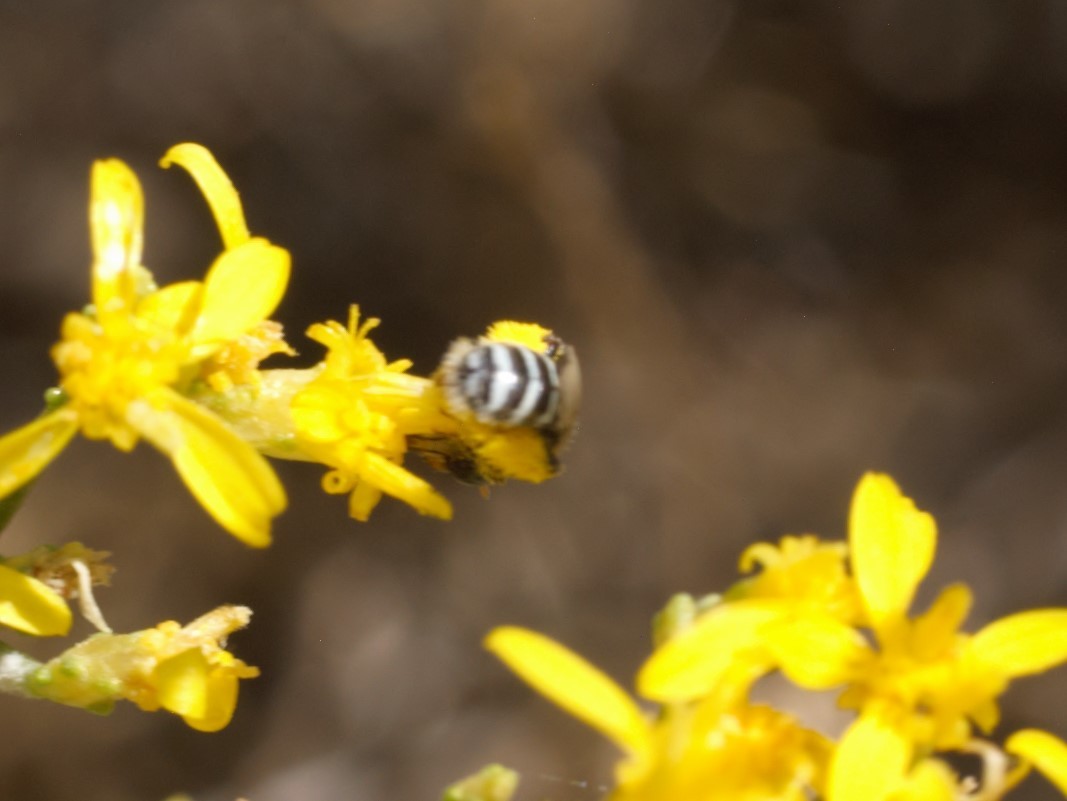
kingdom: Animalia
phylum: Arthropoda
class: Insecta
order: Hymenoptera
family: Andrenidae
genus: Perdita
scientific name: Perdita
